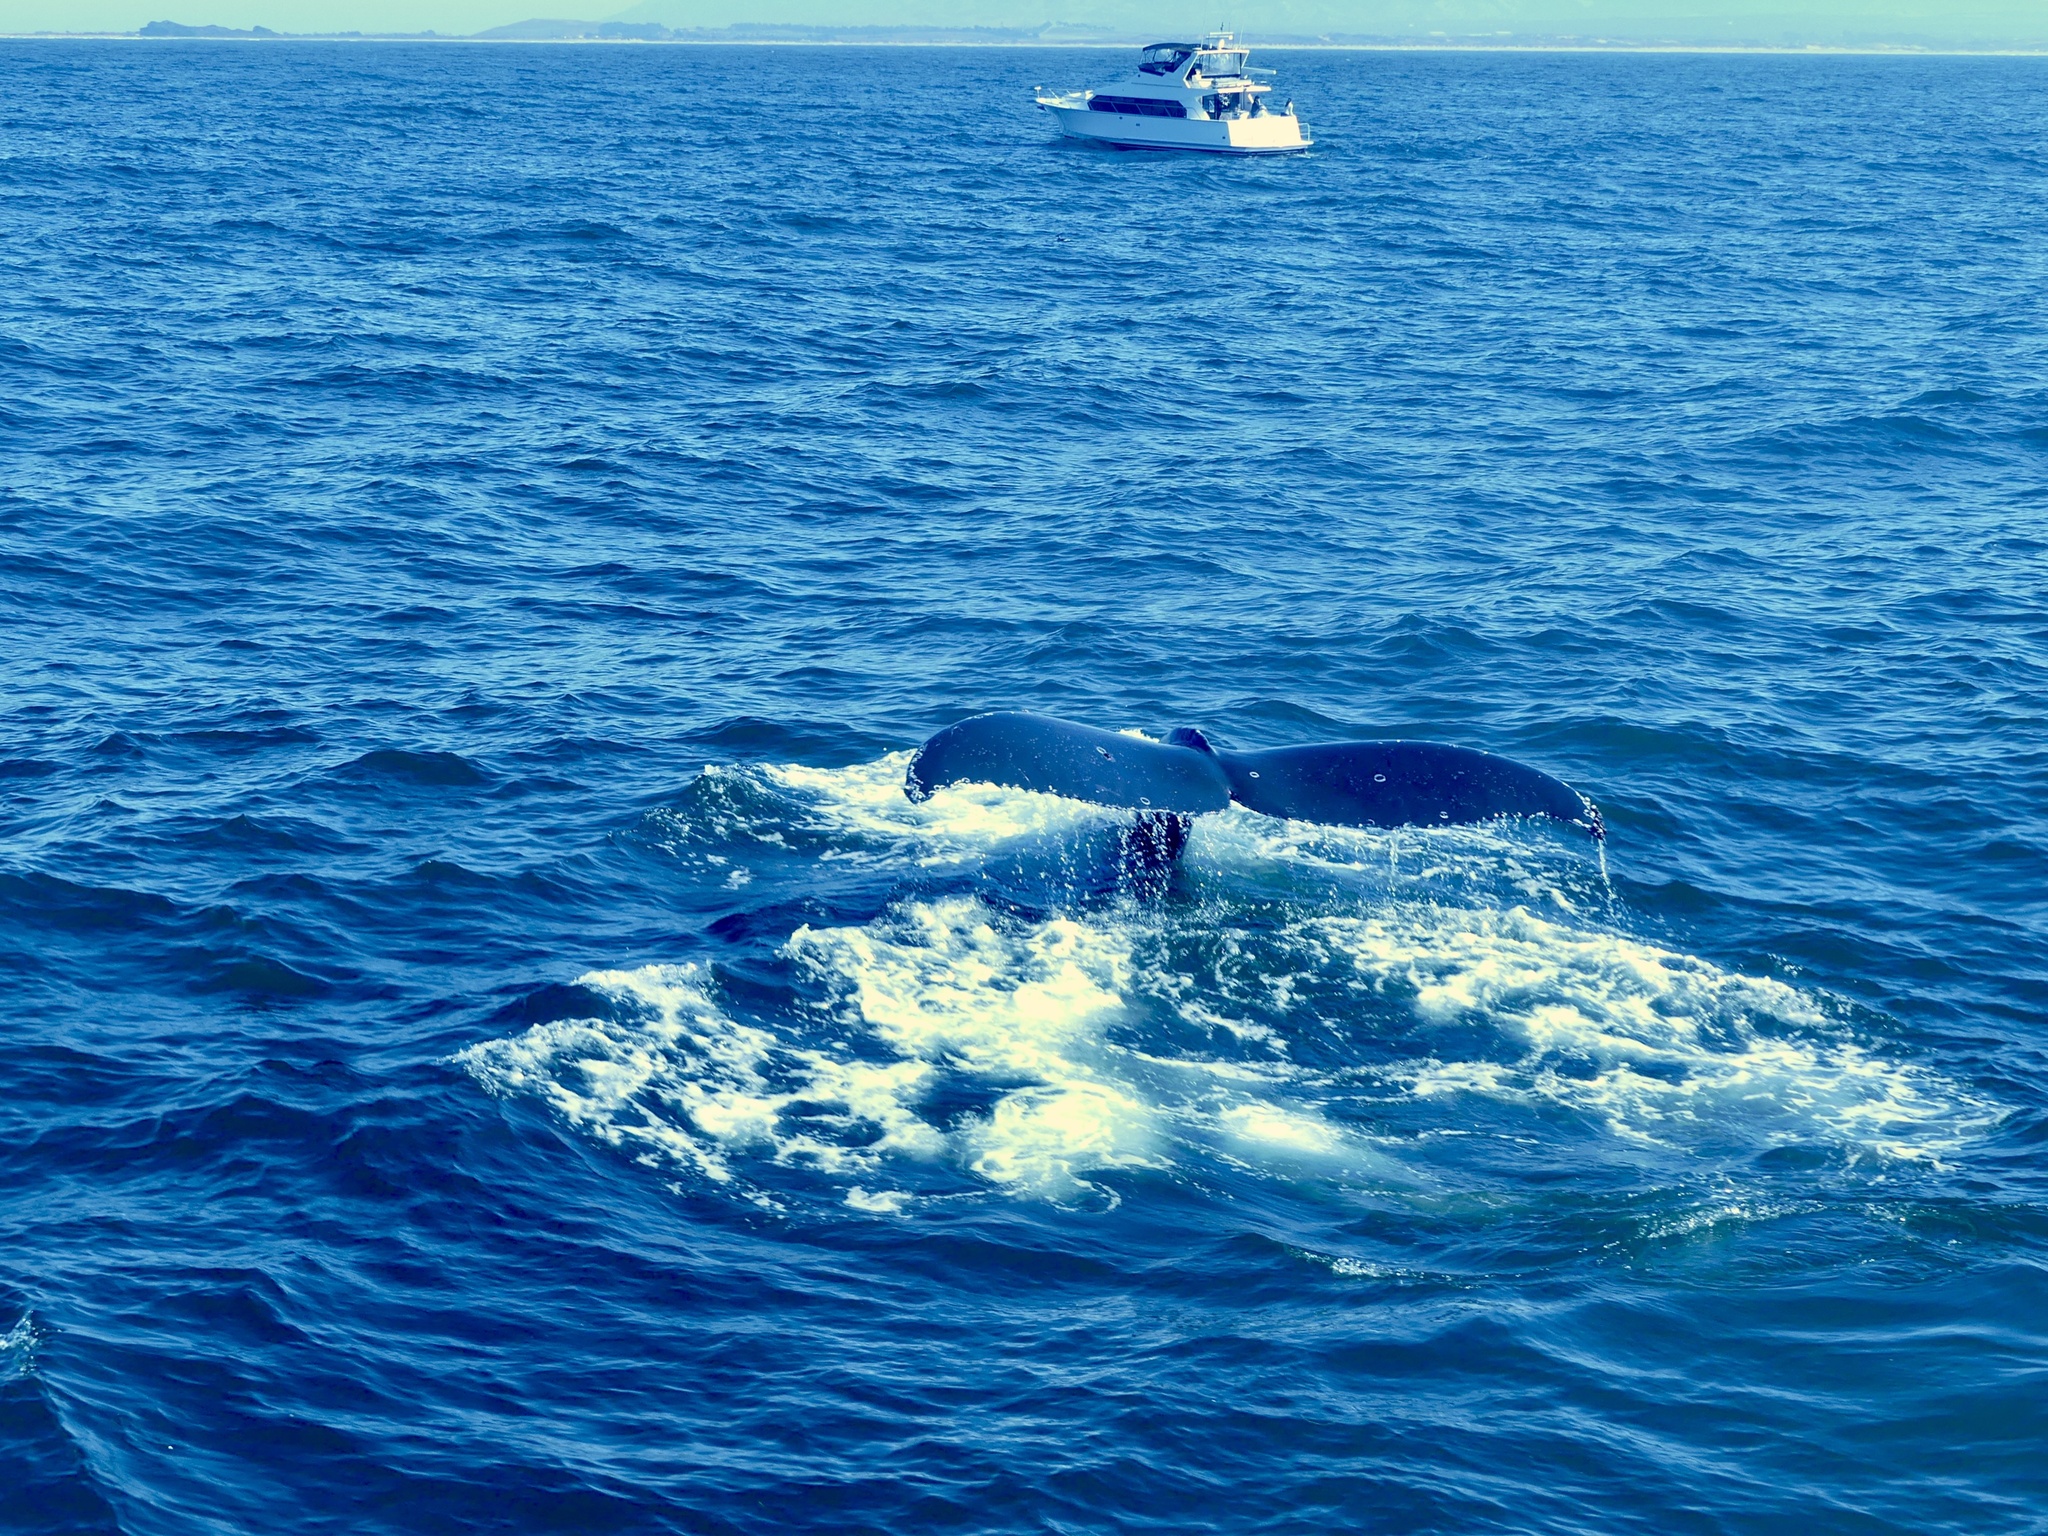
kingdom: Animalia
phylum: Chordata
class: Mammalia
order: Cetacea
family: Balaenopteridae
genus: Megaptera
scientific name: Megaptera novaeangliae
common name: Humpback whale
